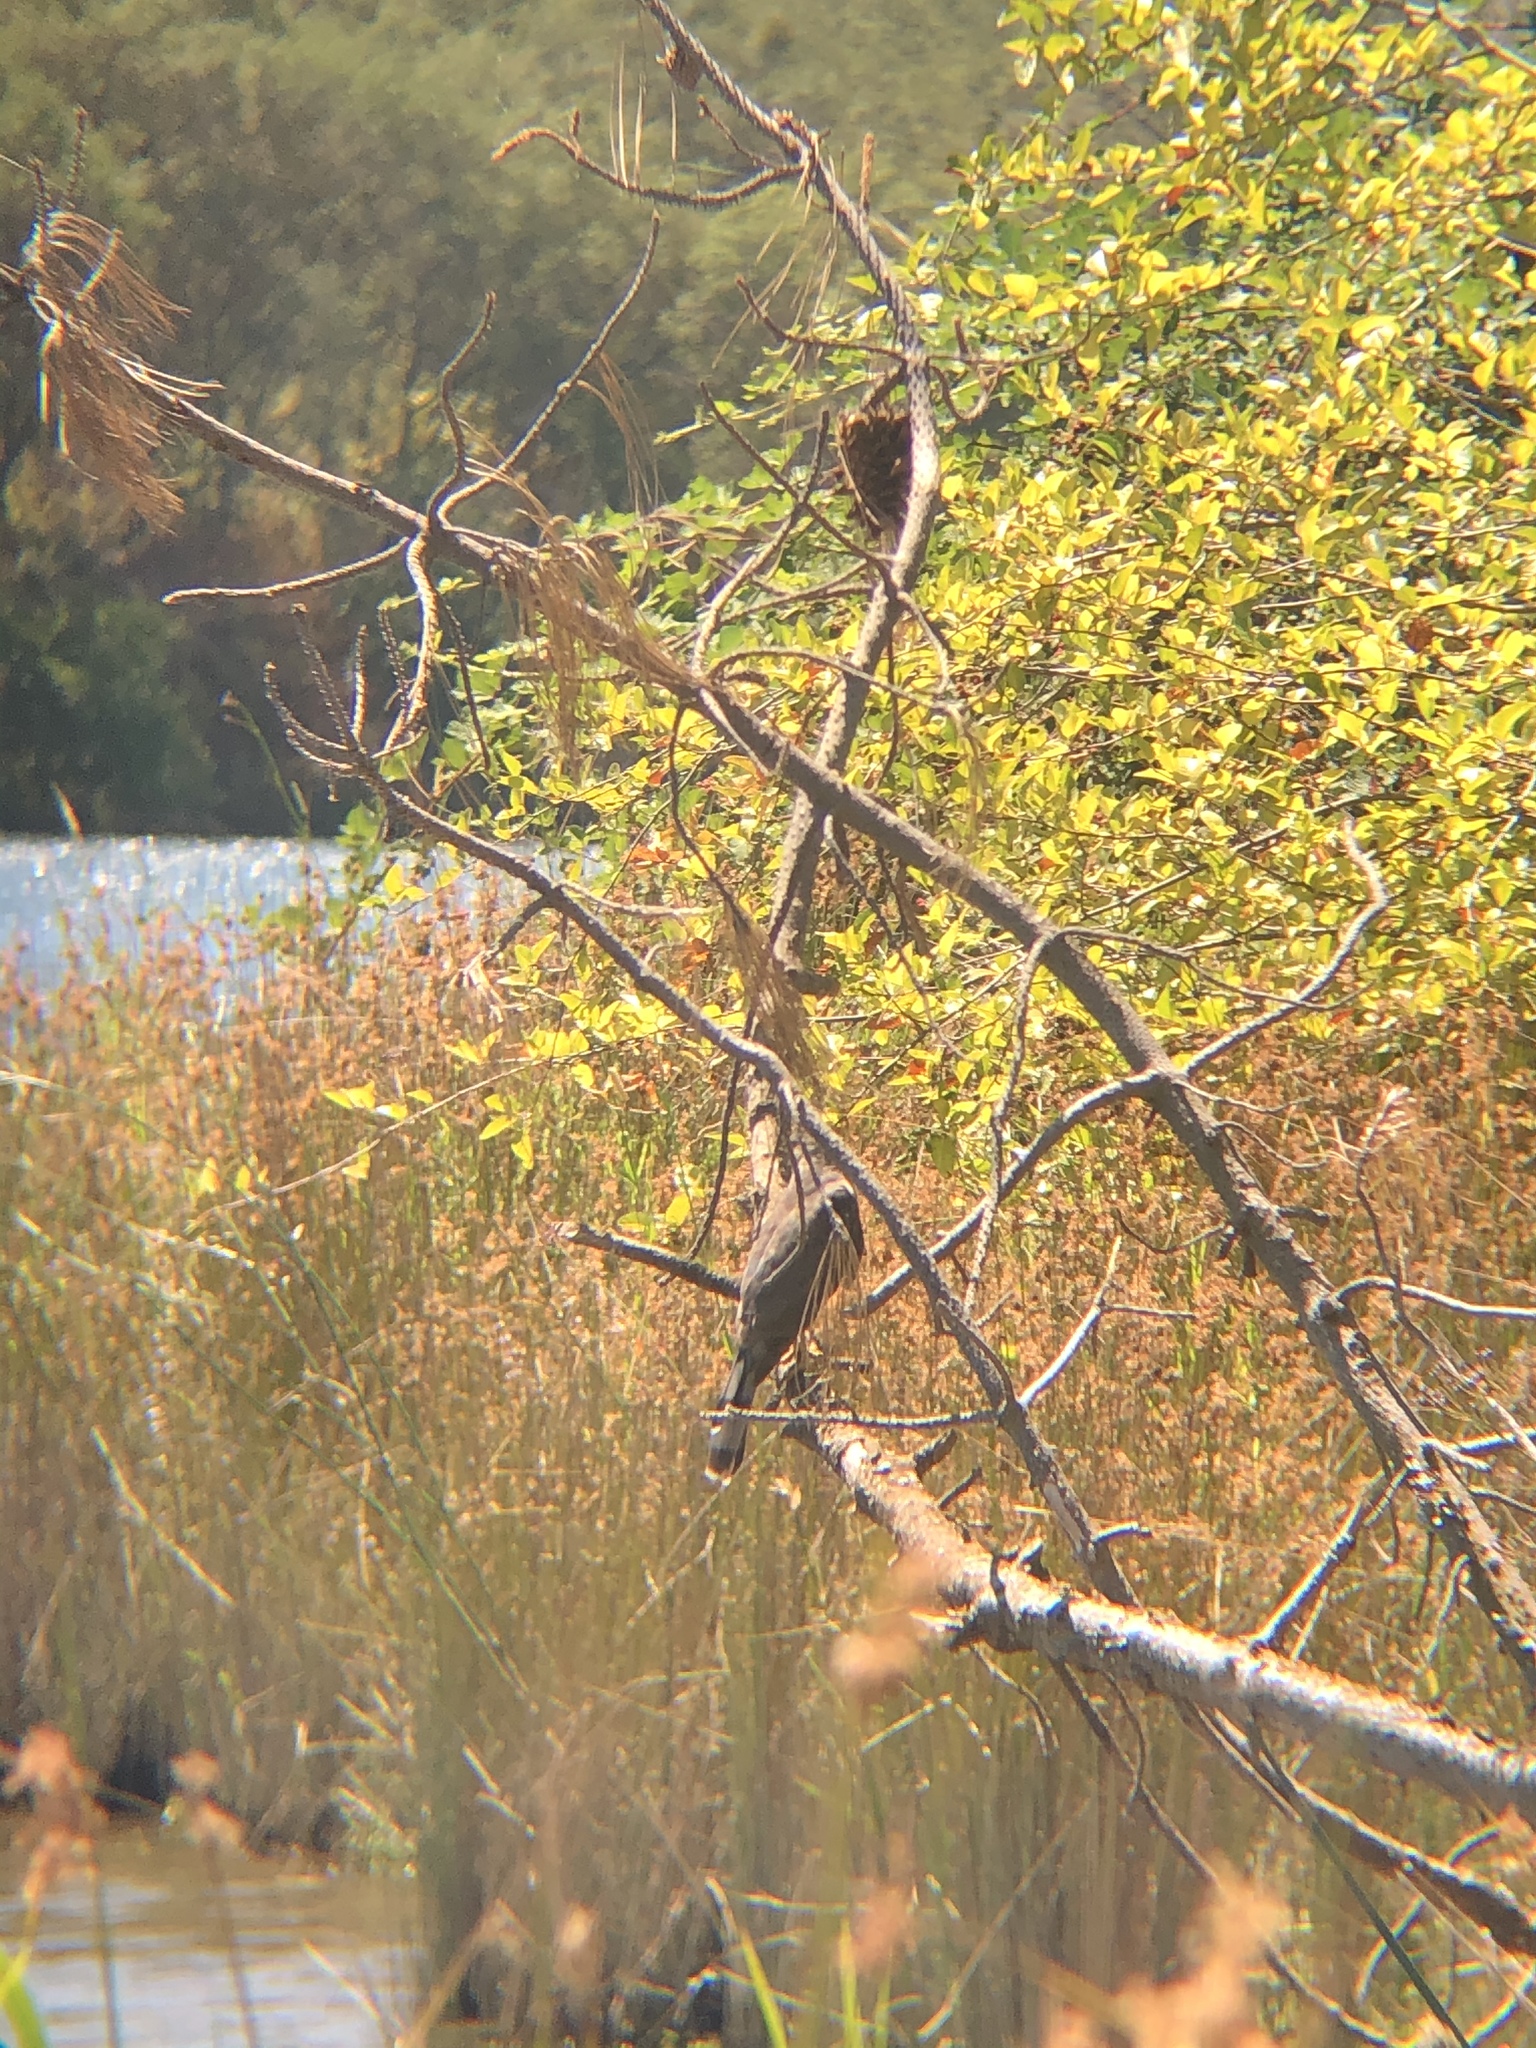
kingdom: Animalia
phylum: Chordata
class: Aves
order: Accipitriformes
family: Accipitridae
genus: Accipiter
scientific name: Accipiter cooperii
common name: Cooper's hawk
